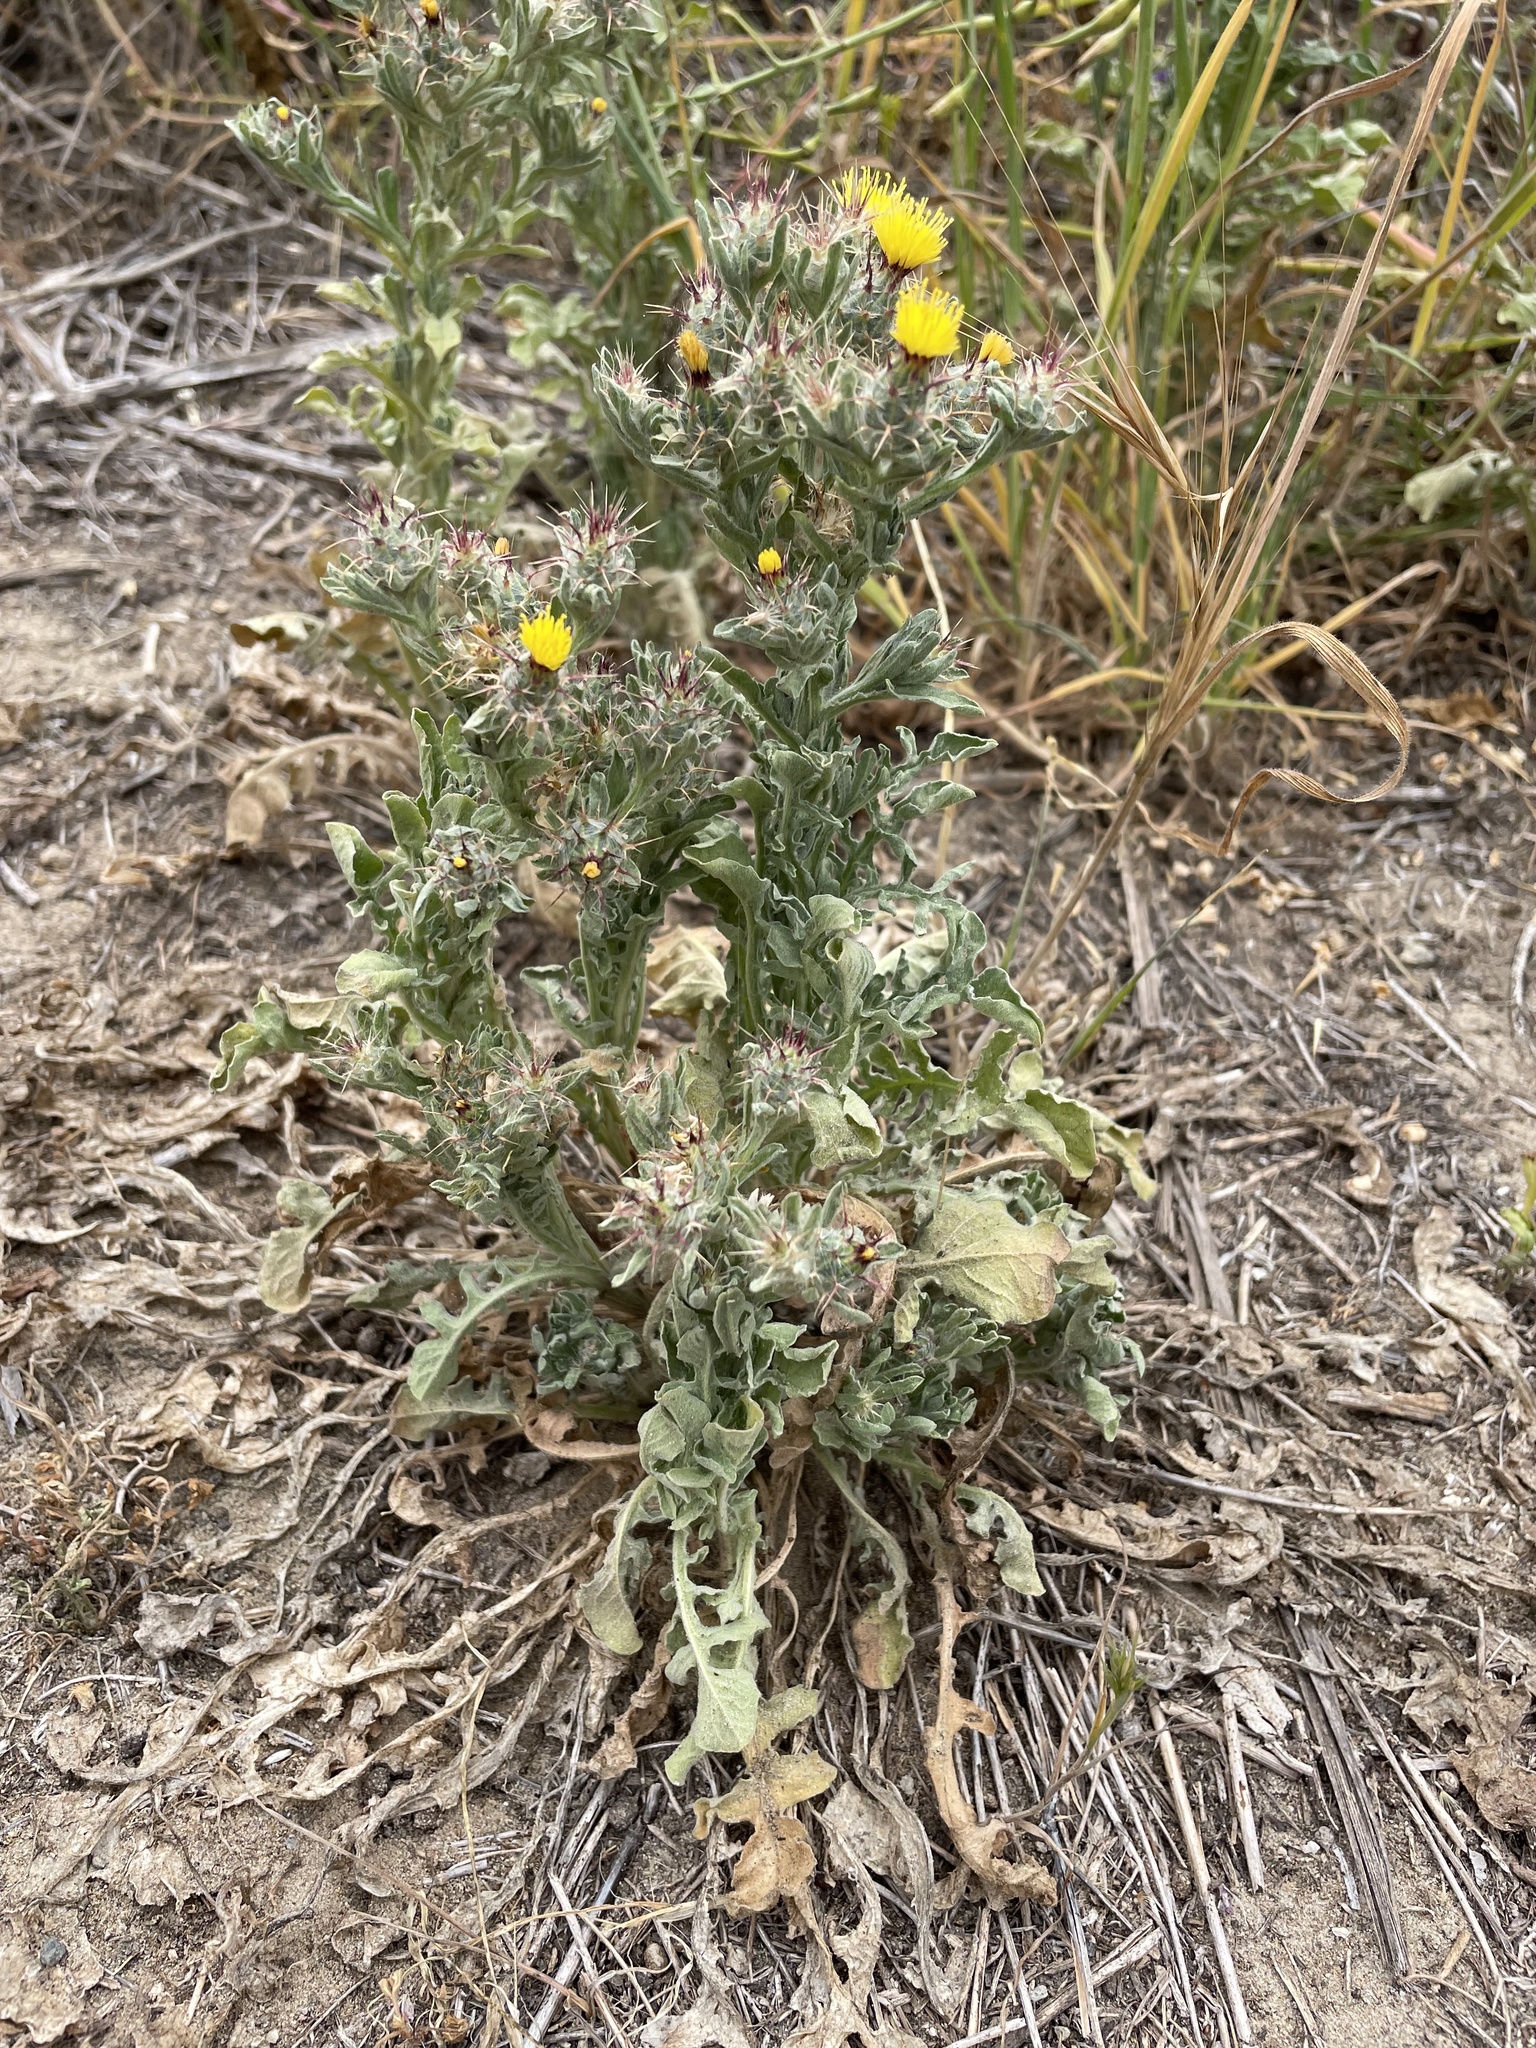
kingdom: Plantae
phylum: Tracheophyta
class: Magnoliopsida
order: Asterales
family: Asteraceae
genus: Centaurea
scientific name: Centaurea melitensis
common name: Maltese star-thistle
